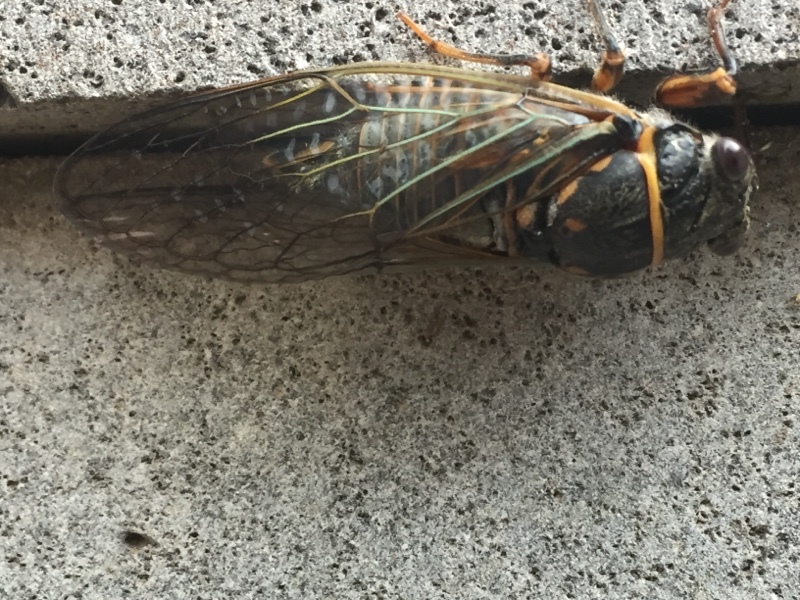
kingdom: Animalia
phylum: Arthropoda
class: Insecta
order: Hemiptera
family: Cicadidae
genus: Tibicina
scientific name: Tibicina steveni
